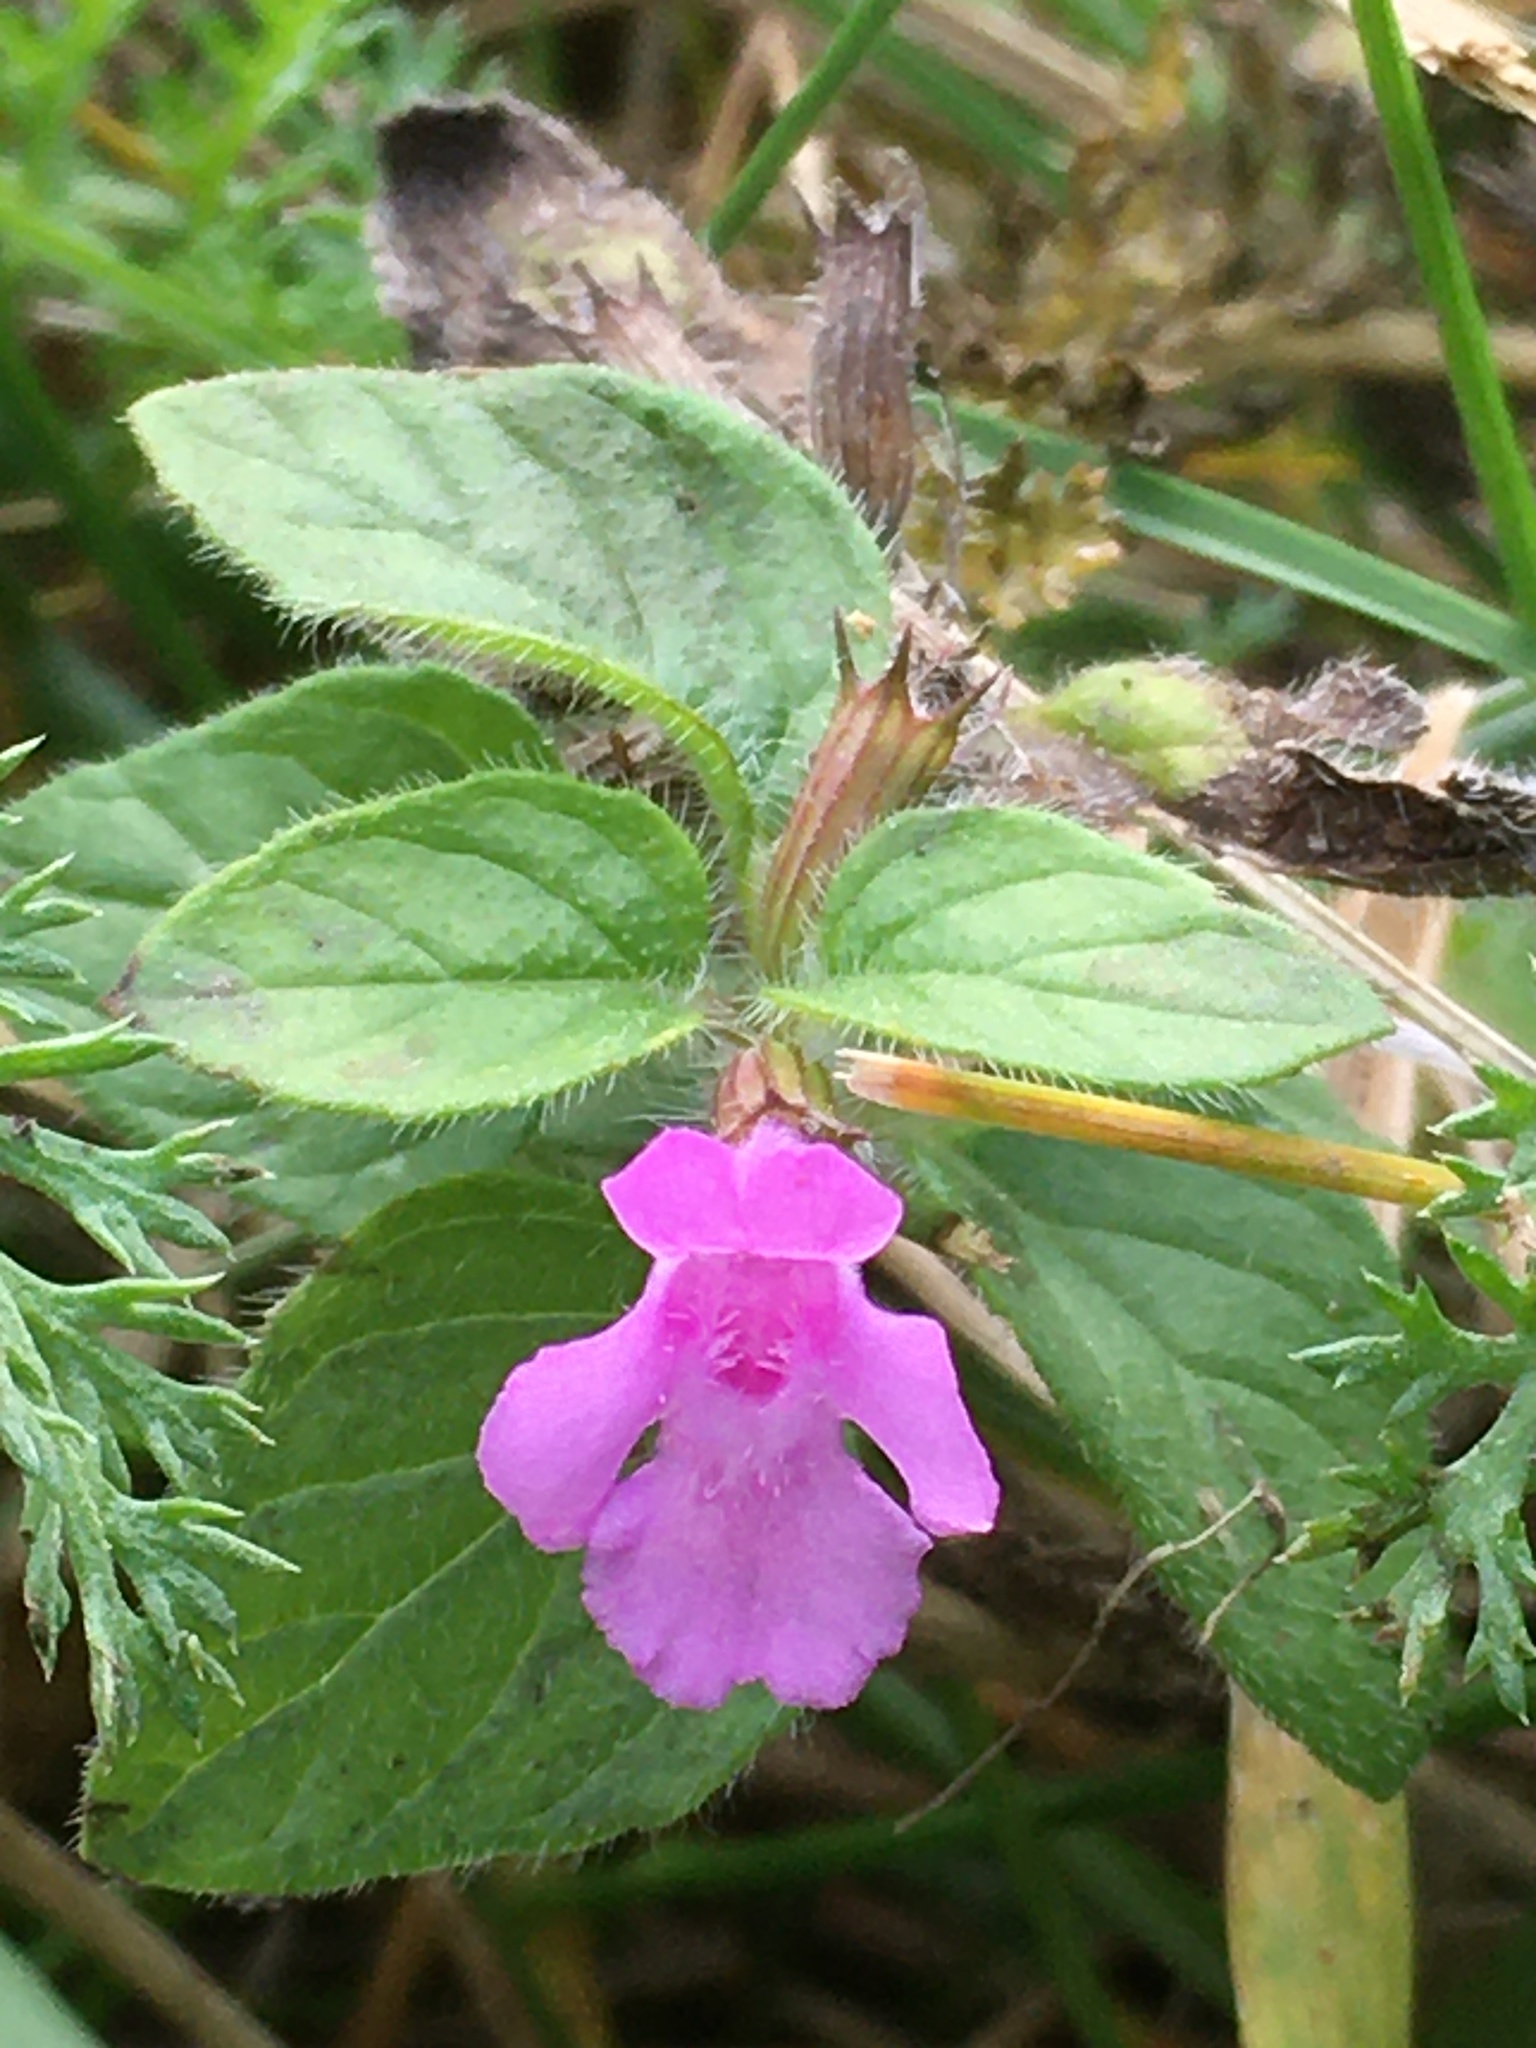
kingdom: Plantae
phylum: Tracheophyta
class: Magnoliopsida
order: Lamiales
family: Lamiaceae
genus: Clinopodium
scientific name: Clinopodium vulgare
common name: Wild basil
